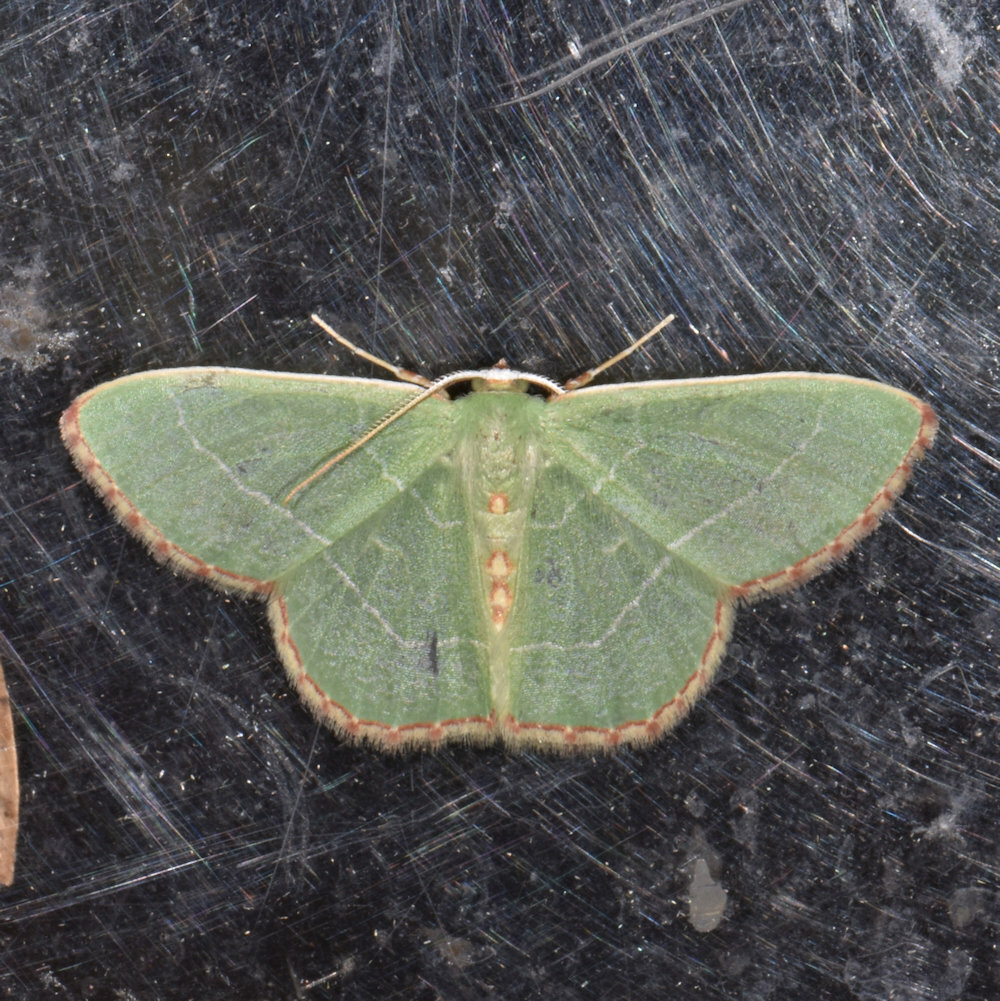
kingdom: Animalia
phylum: Arthropoda
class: Insecta
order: Lepidoptera
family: Geometridae
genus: Nemoria
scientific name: Nemoria bistriaria
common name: Red-fringed emerald
